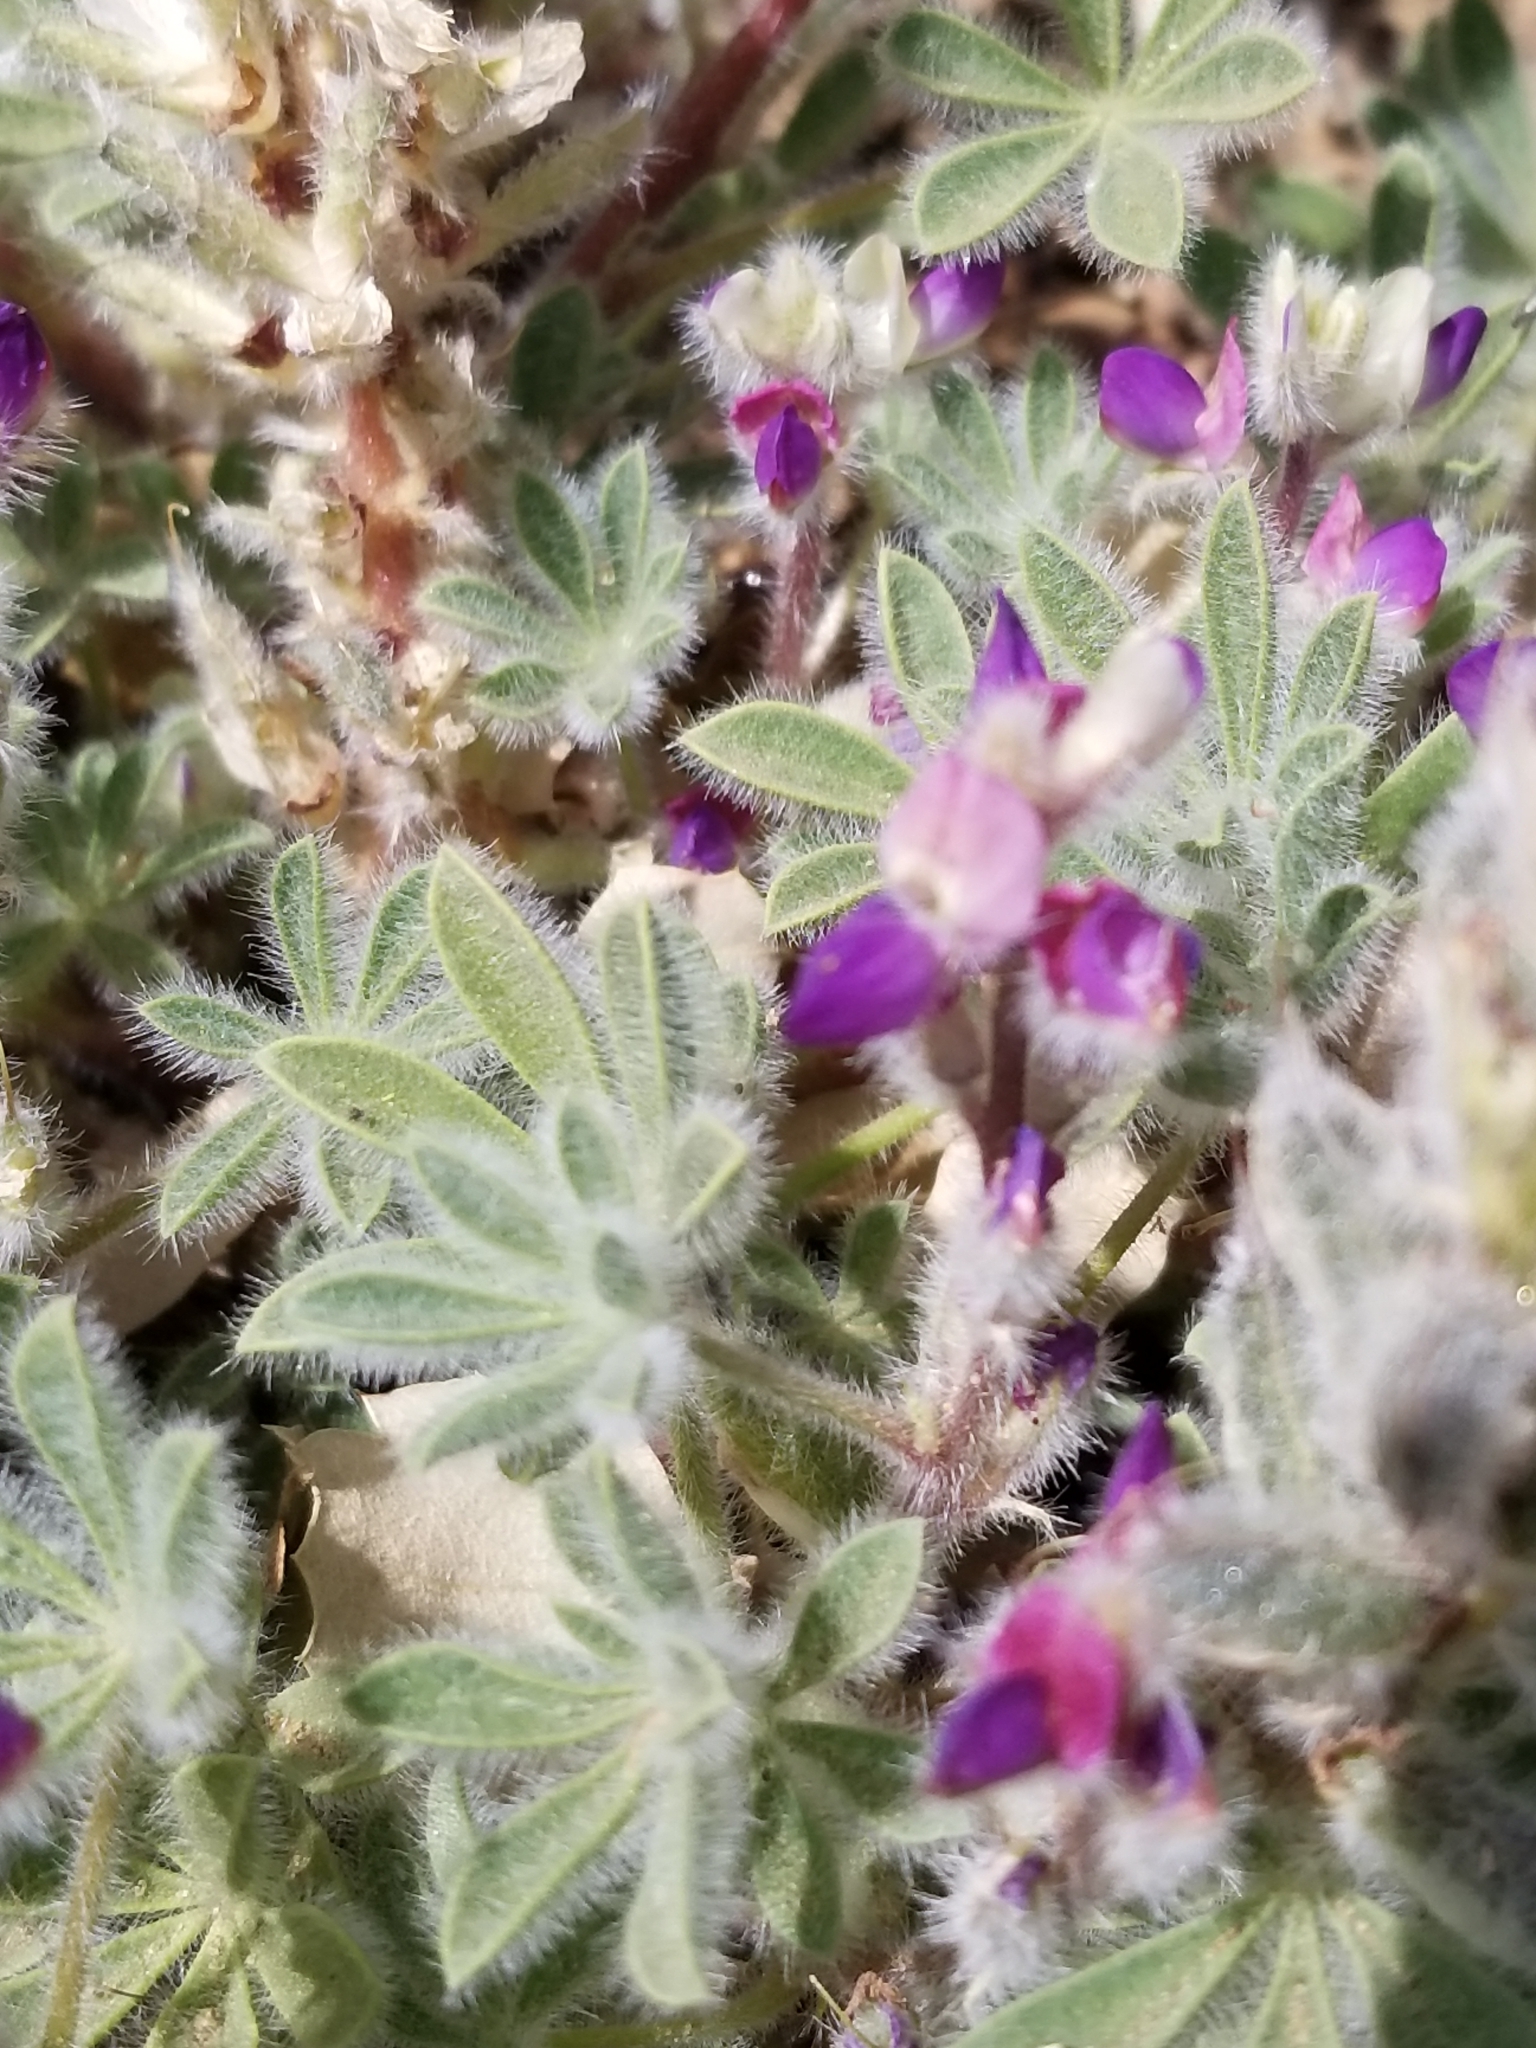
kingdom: Plantae
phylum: Tracheophyta
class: Magnoliopsida
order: Fabales
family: Fabaceae
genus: Lupinus
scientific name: Lupinus concinnus
